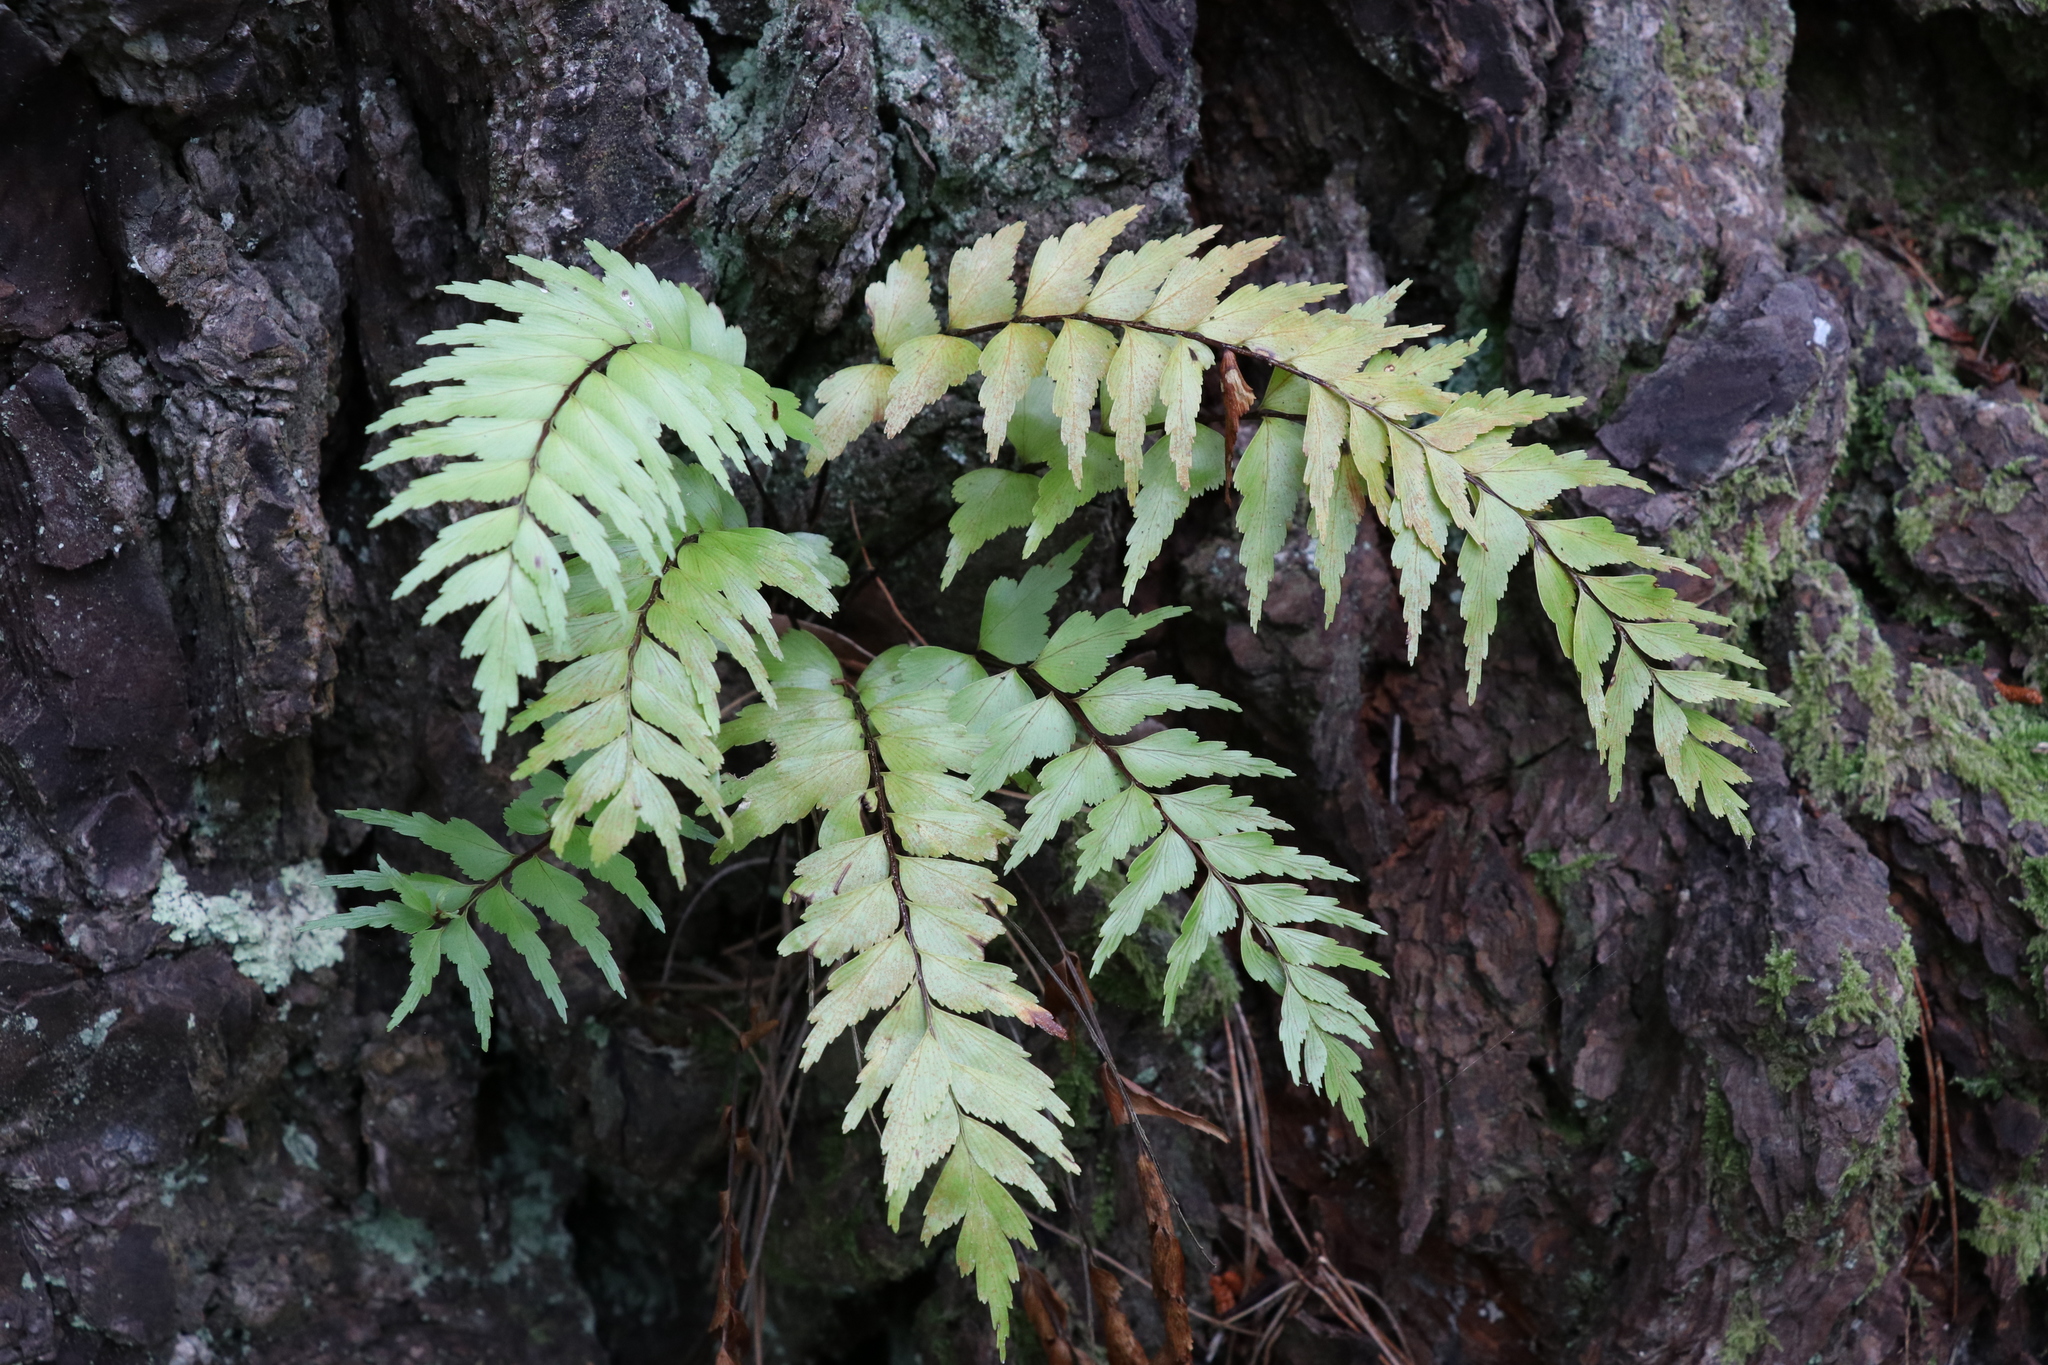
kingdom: Plantae
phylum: Tracheophyta
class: Polypodiopsida
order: Polypodiales
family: Aspleniaceae
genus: Asplenium
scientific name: Asplenium polyodon
